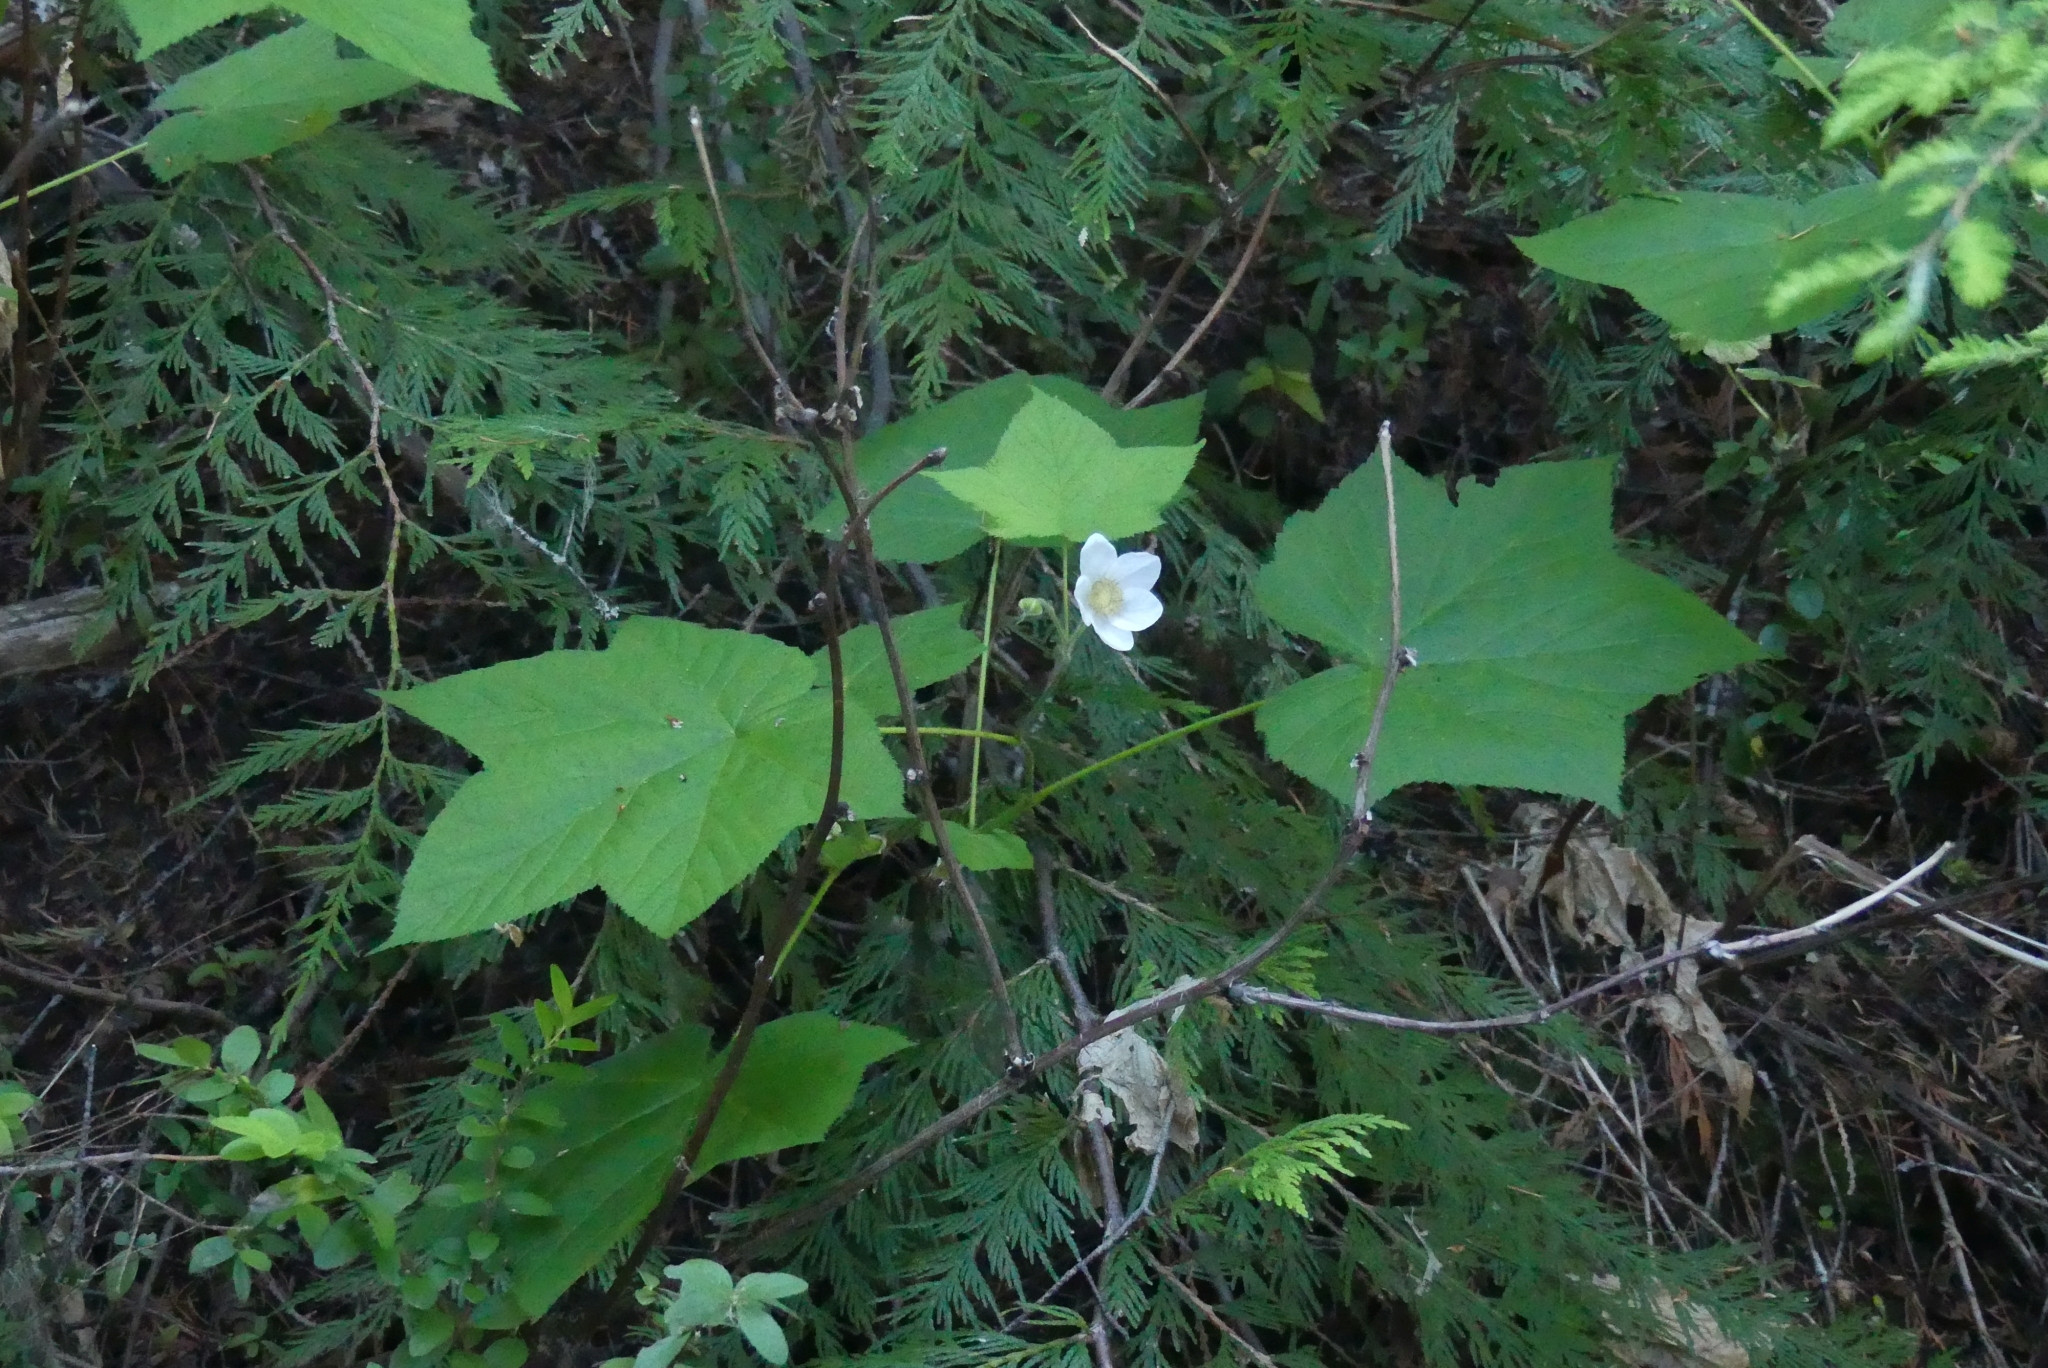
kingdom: Plantae
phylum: Tracheophyta
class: Magnoliopsida
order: Rosales
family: Rosaceae
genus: Rubus
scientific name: Rubus parviflorus
